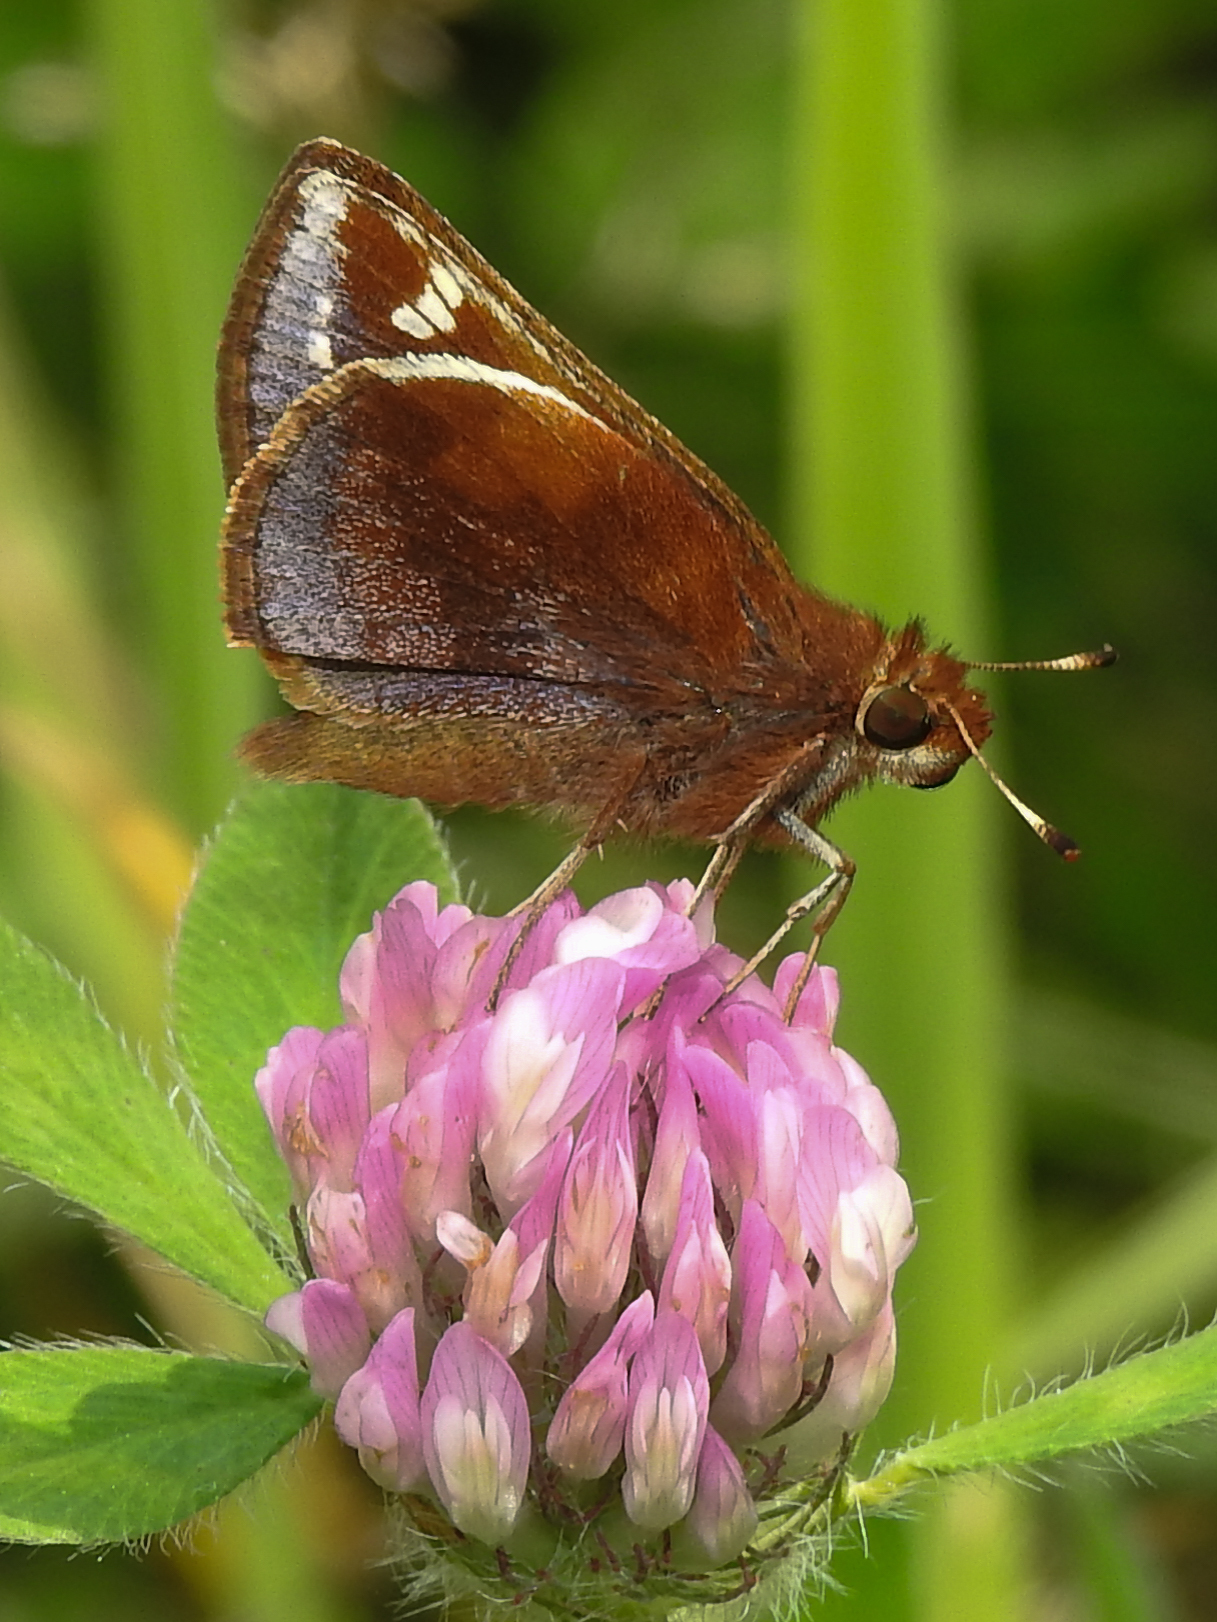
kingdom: Animalia
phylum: Arthropoda
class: Insecta
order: Lepidoptera
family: Hesperiidae
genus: Lon
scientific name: Lon zabulon
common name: Zabulon skipper
